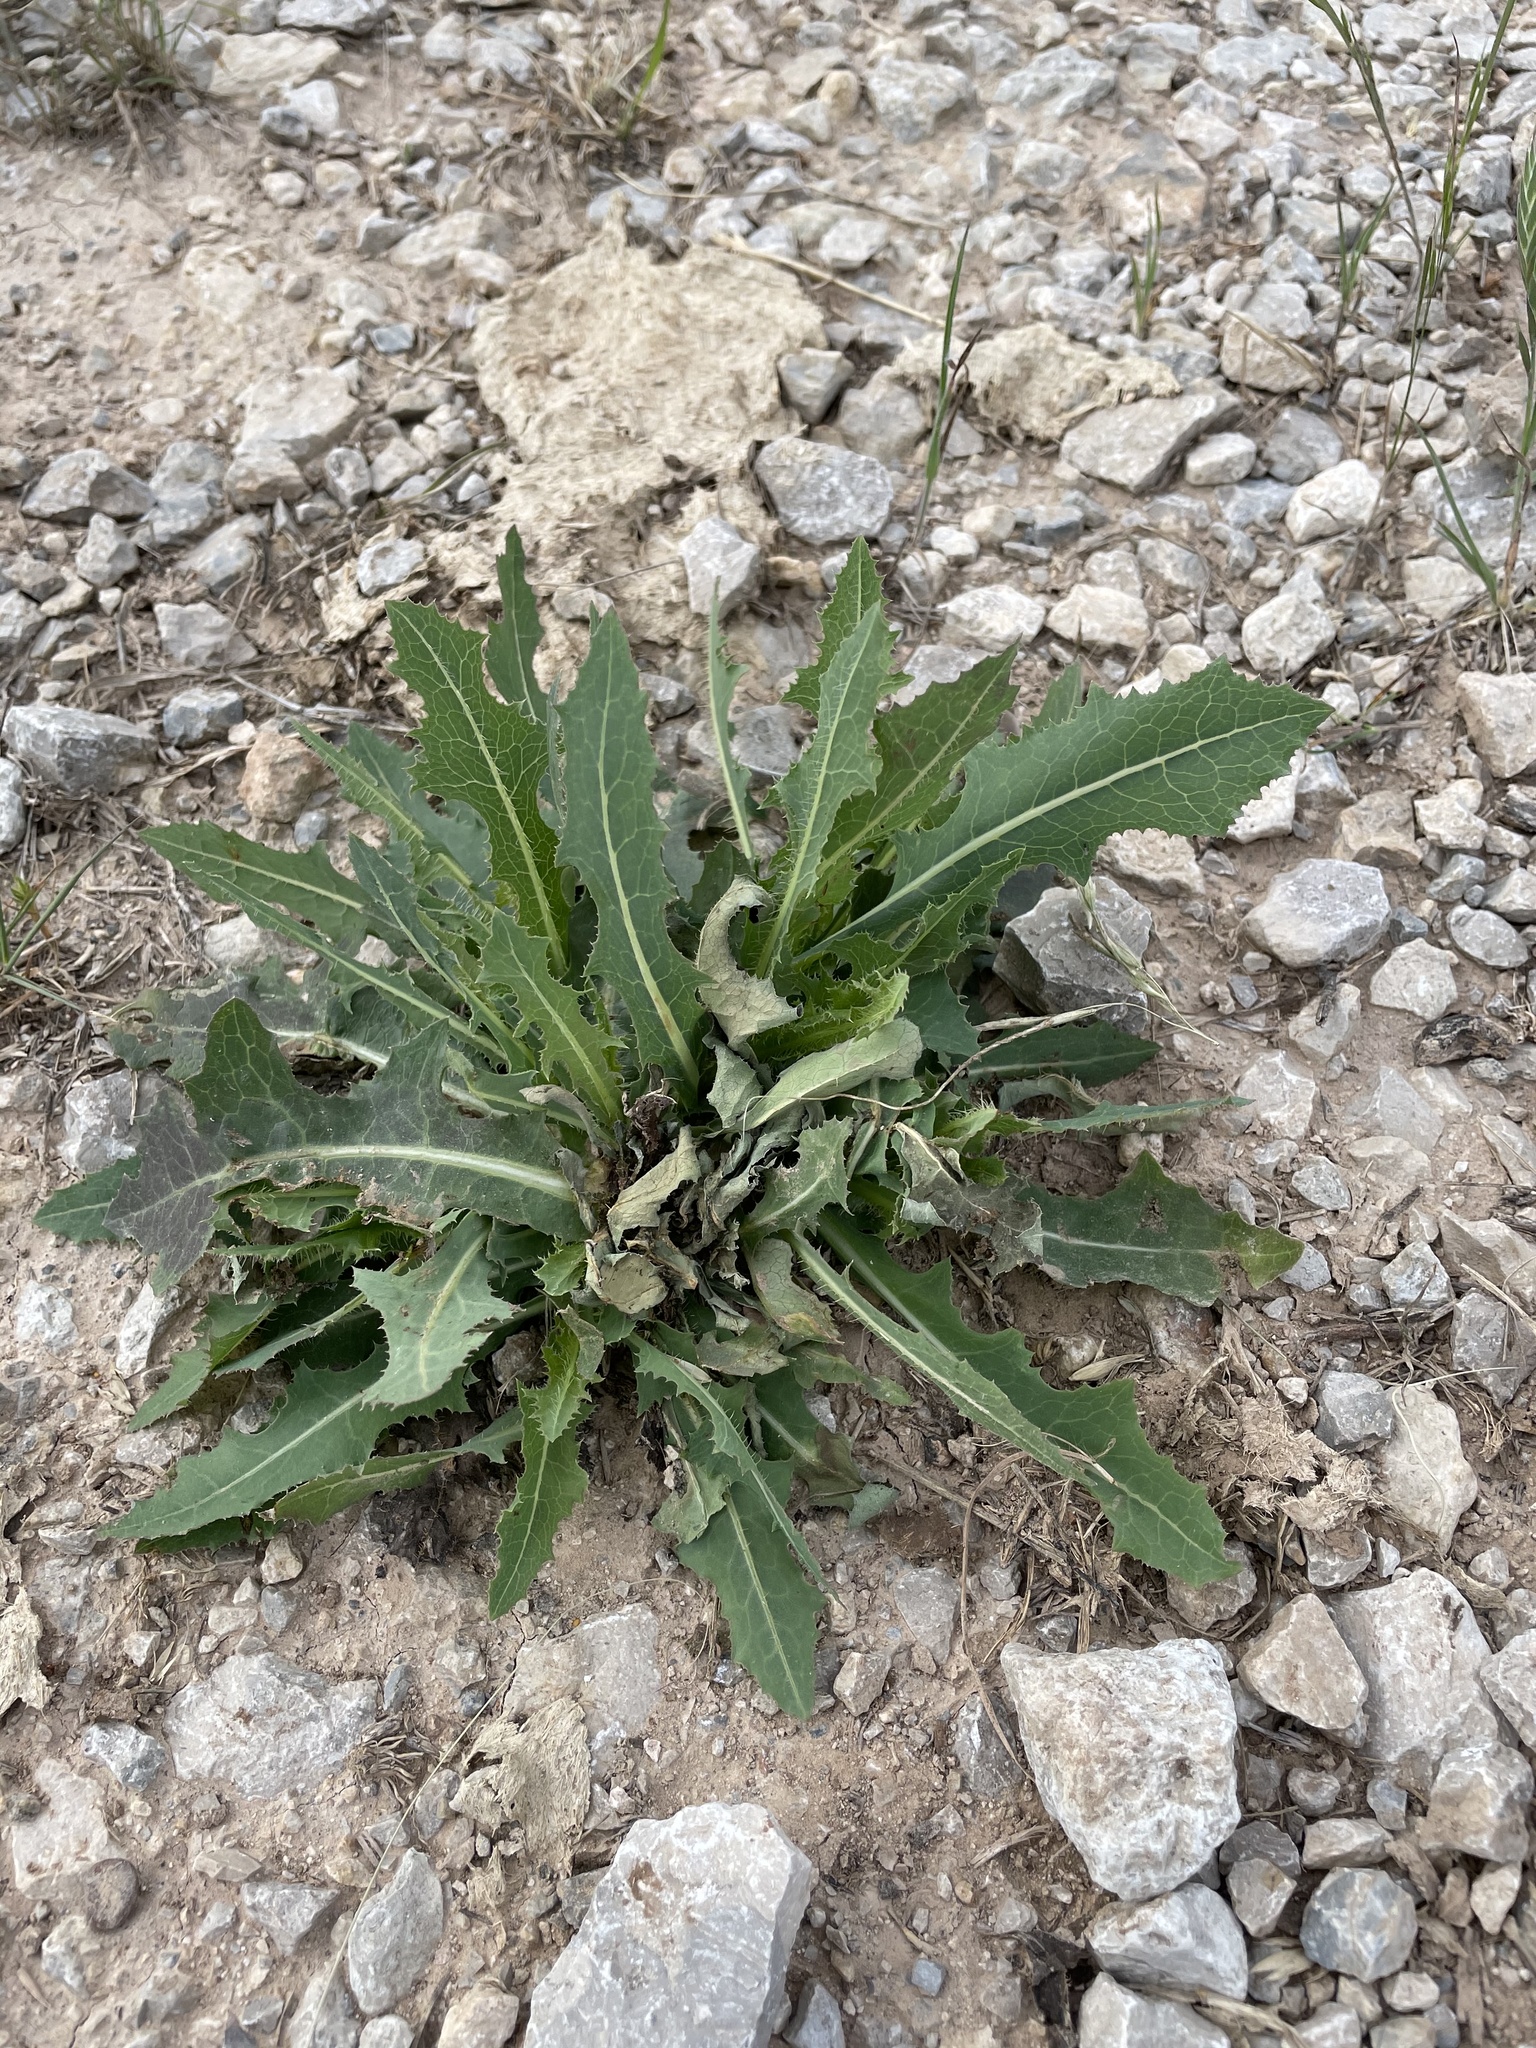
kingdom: Plantae
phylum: Tracheophyta
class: Magnoliopsida
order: Asterales
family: Asteraceae
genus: Lactuca
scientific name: Lactuca serriola
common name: Prickly lettuce
